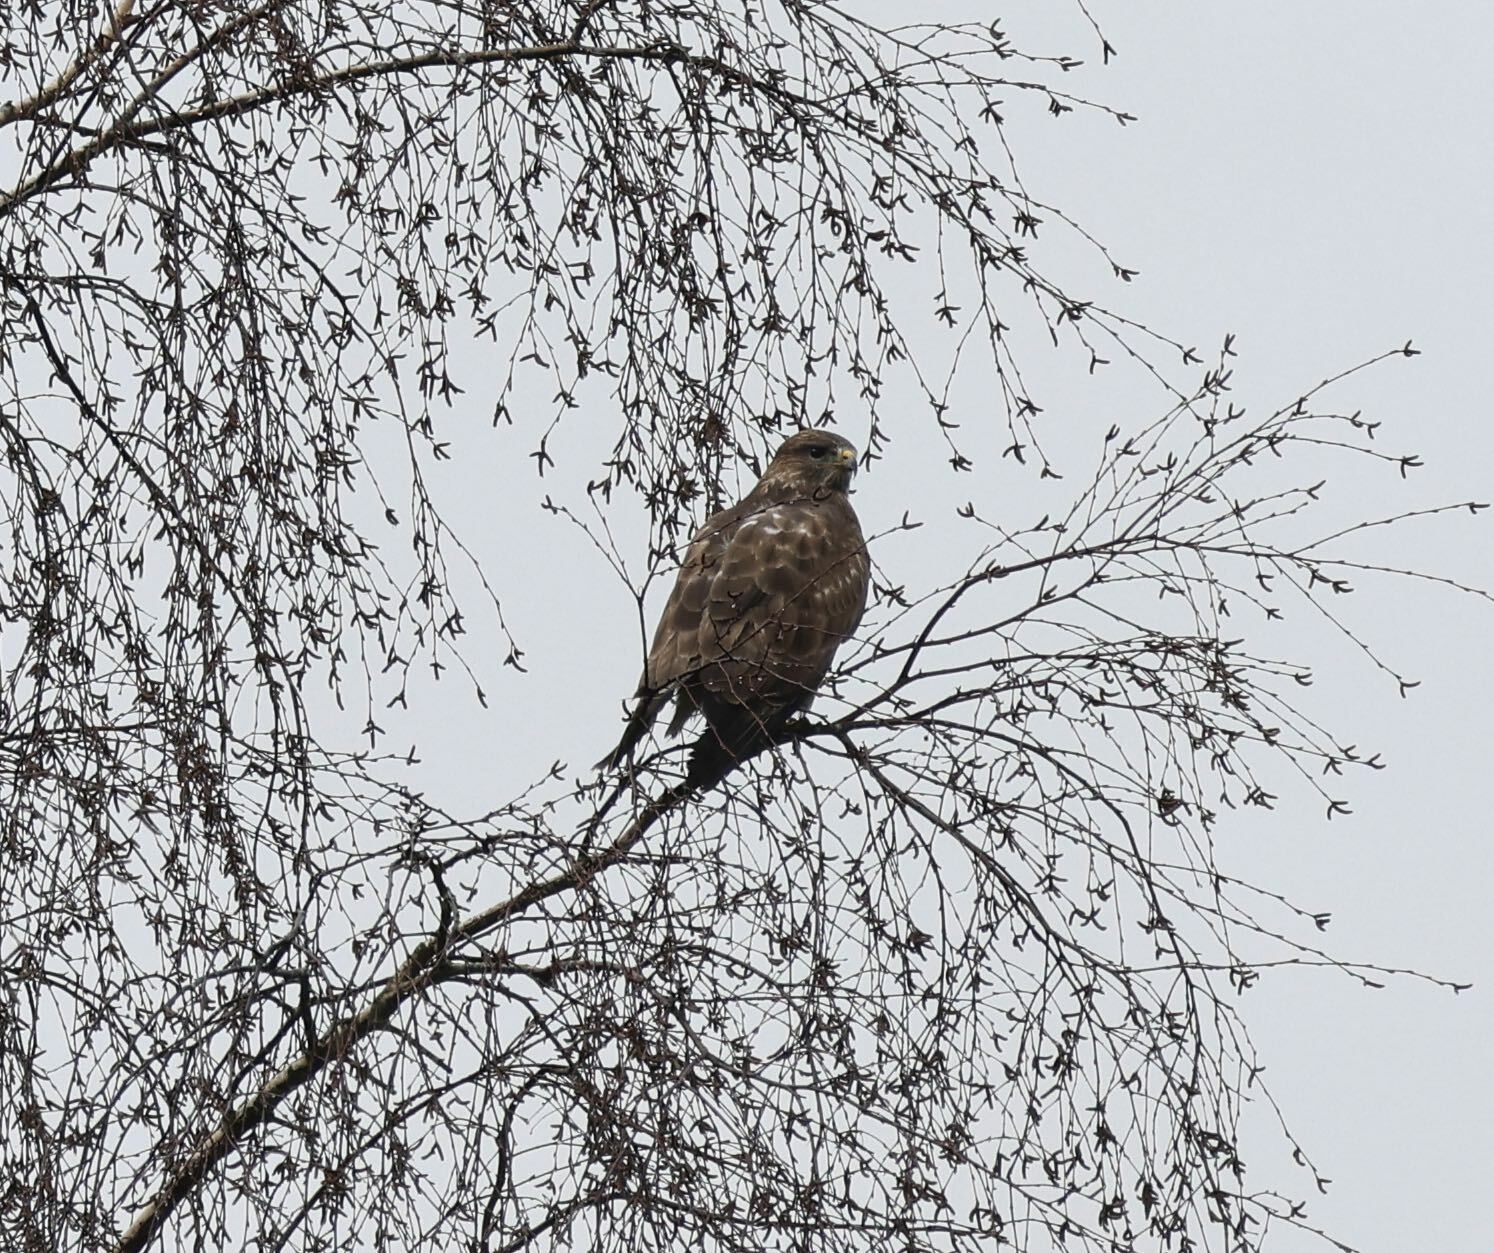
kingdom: Animalia
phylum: Chordata
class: Aves
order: Accipitriformes
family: Accipitridae
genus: Buteo
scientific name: Buteo buteo
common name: Common buzzard
